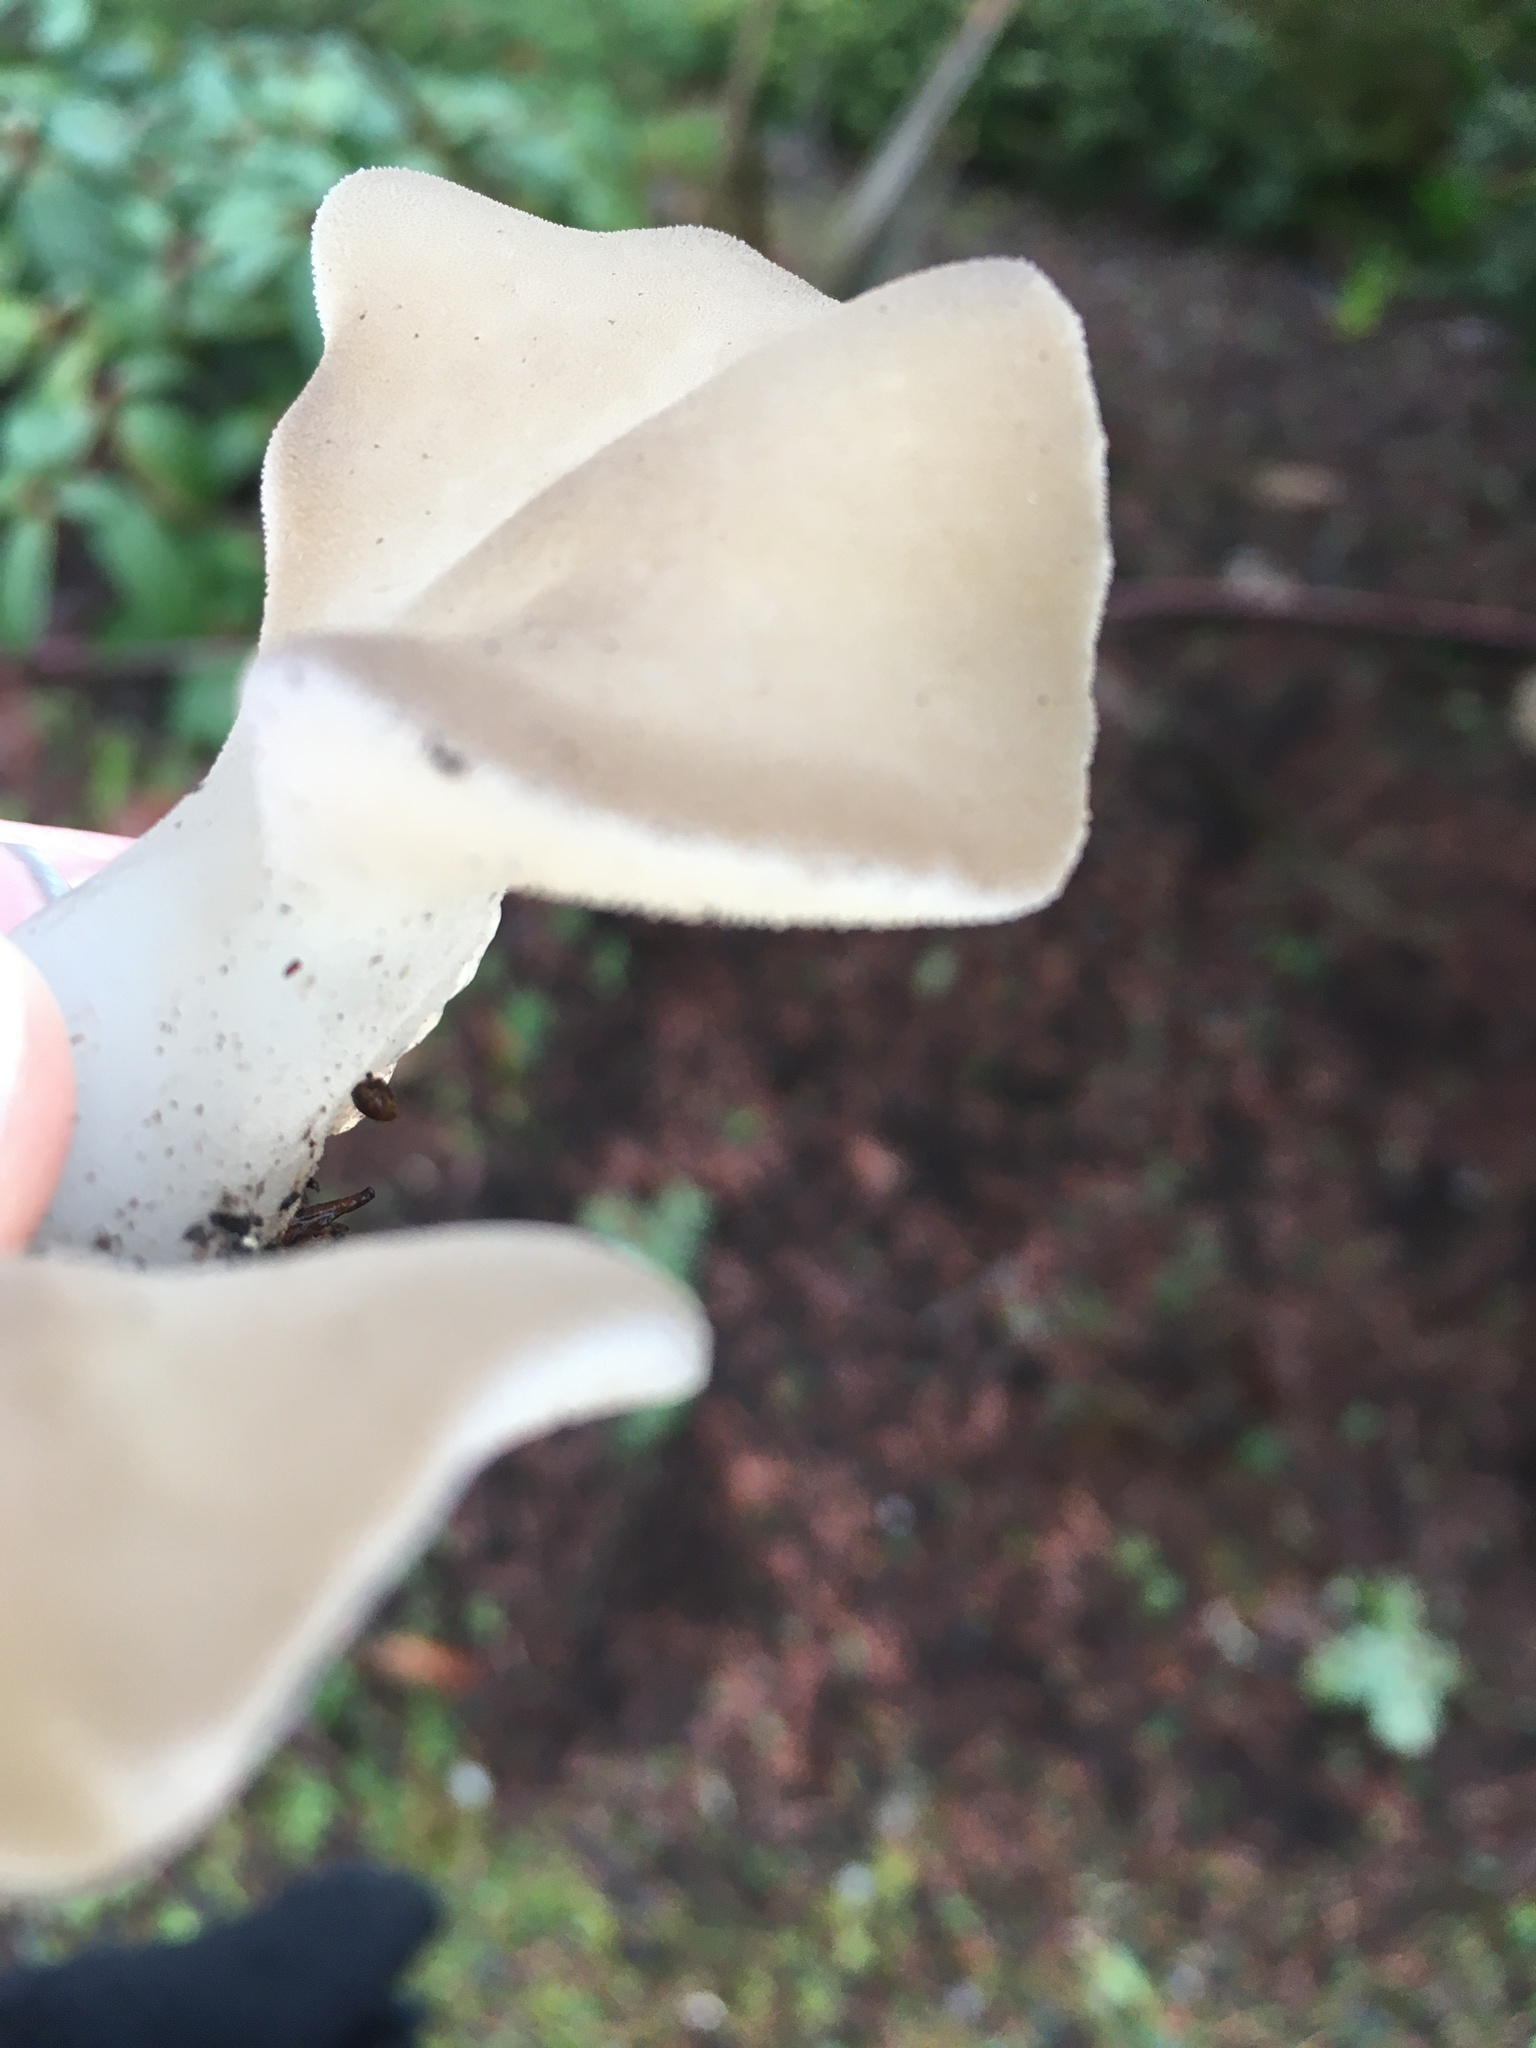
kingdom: Fungi
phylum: Basidiomycota
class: Agaricomycetes
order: Auriculariales
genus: Pseudohydnum
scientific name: Pseudohydnum gelatinosum
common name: Jelly tongue
